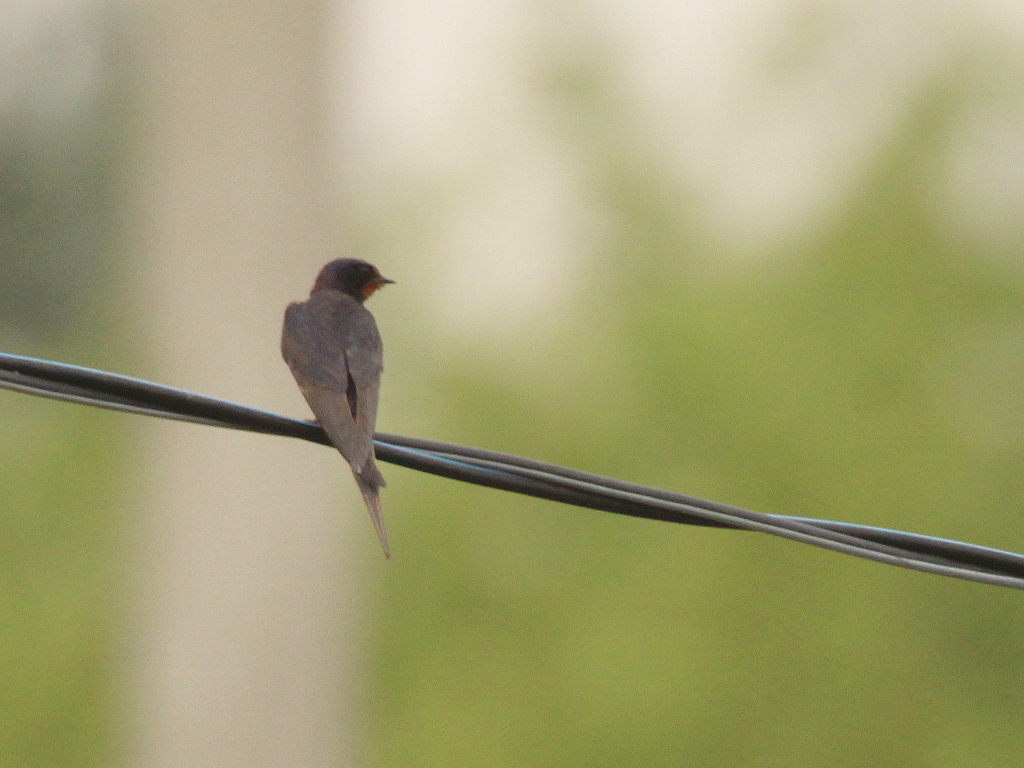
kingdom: Animalia
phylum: Chordata
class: Aves
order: Passeriformes
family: Hirundinidae
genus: Hirundo
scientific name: Hirundo rustica
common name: Barn swallow
